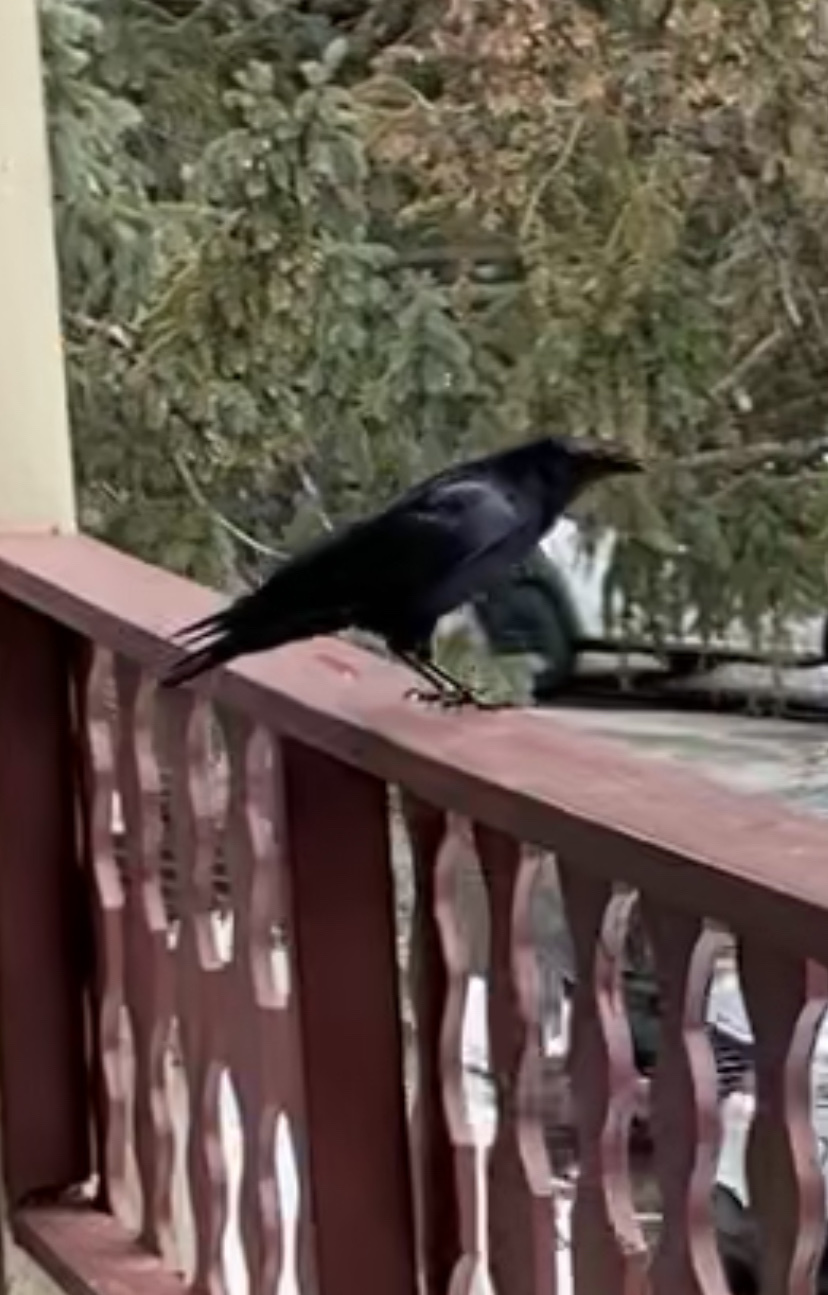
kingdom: Animalia
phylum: Chordata
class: Aves
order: Passeriformes
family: Corvidae
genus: Corvus
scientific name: Corvus brachyrhynchos
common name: American crow
